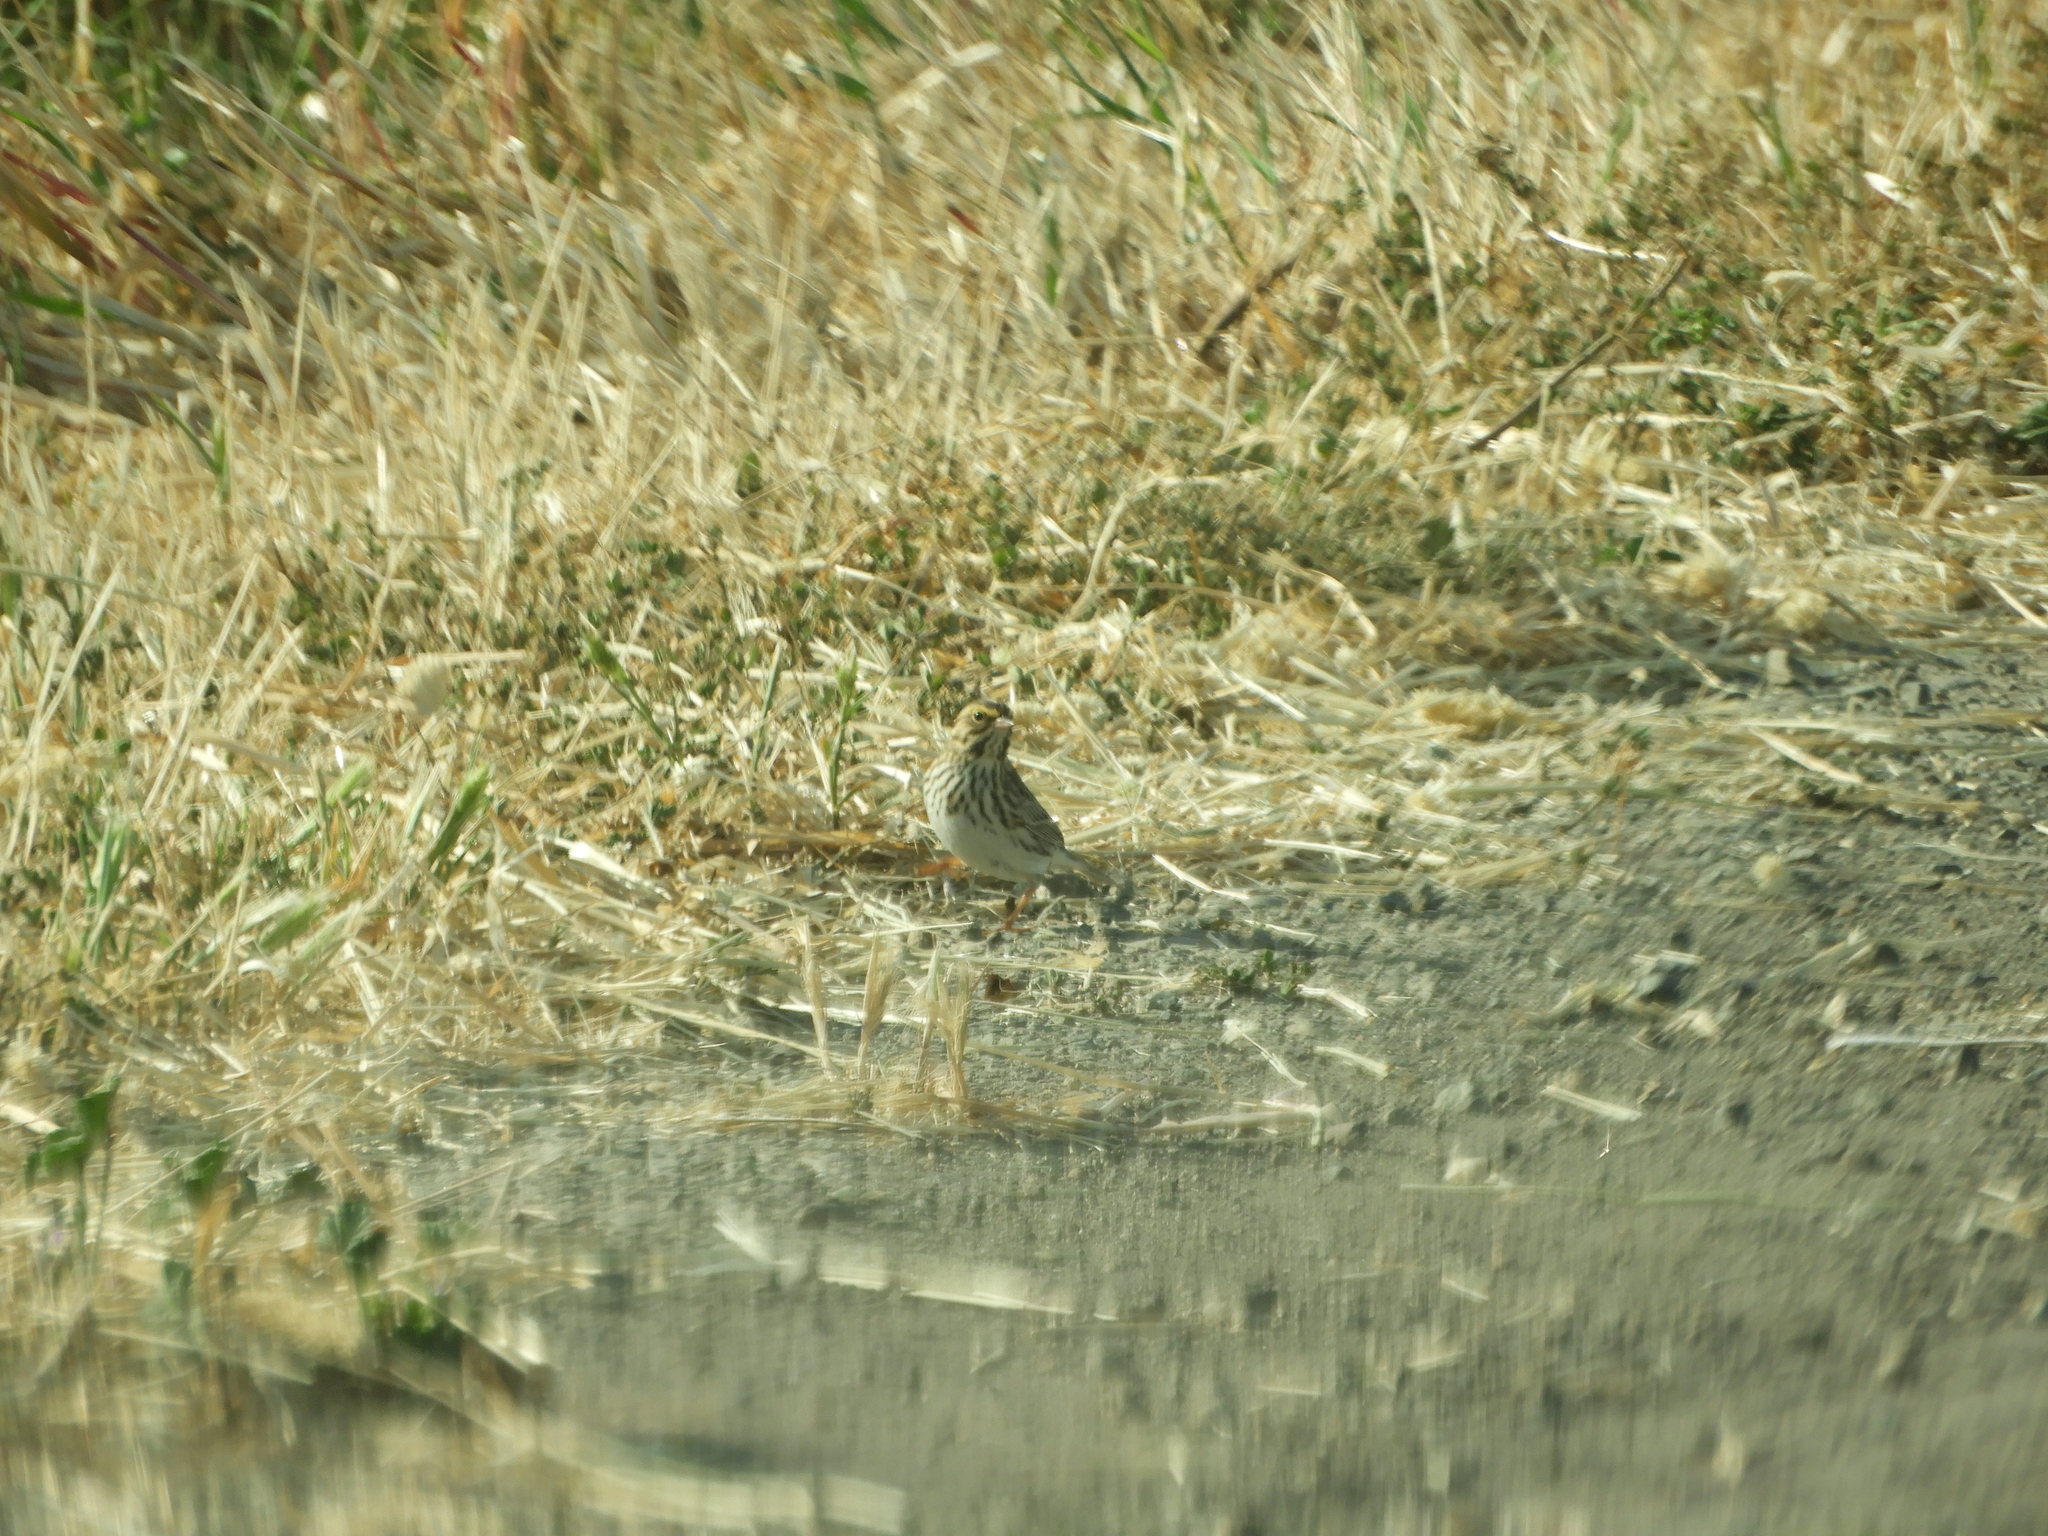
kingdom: Animalia
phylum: Chordata
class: Aves
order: Passeriformes
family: Passerellidae
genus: Passerculus
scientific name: Passerculus sandwichensis
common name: Savannah sparrow
